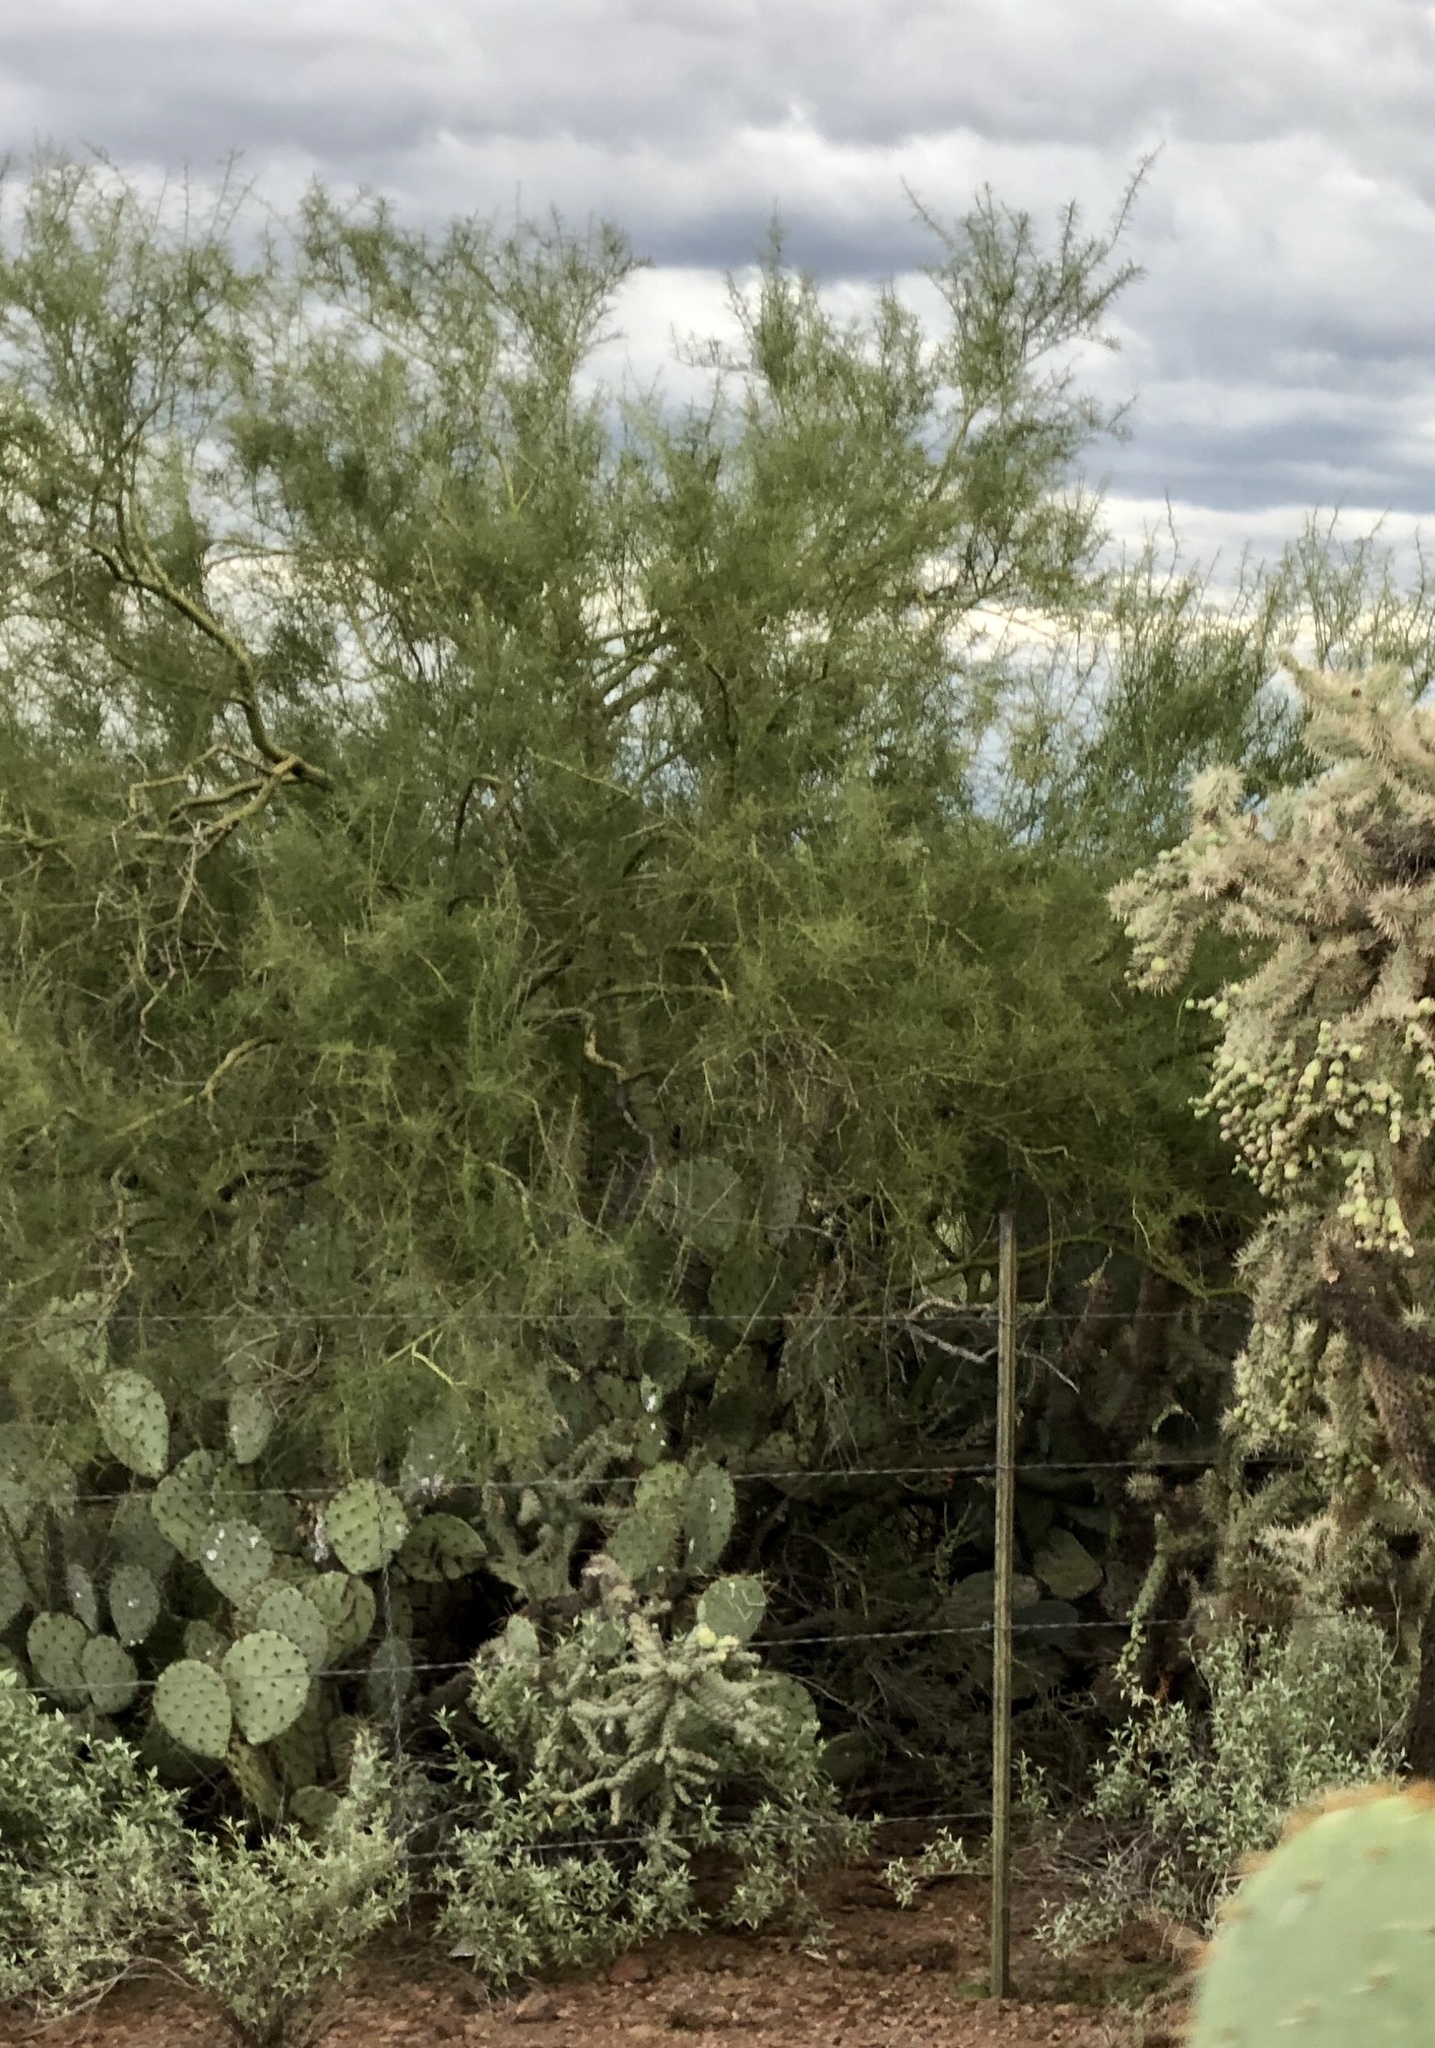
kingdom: Plantae
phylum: Tracheophyta
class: Magnoliopsida
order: Fabales
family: Fabaceae
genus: Parkinsonia
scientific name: Parkinsonia microphylla
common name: Yellow paloverde
